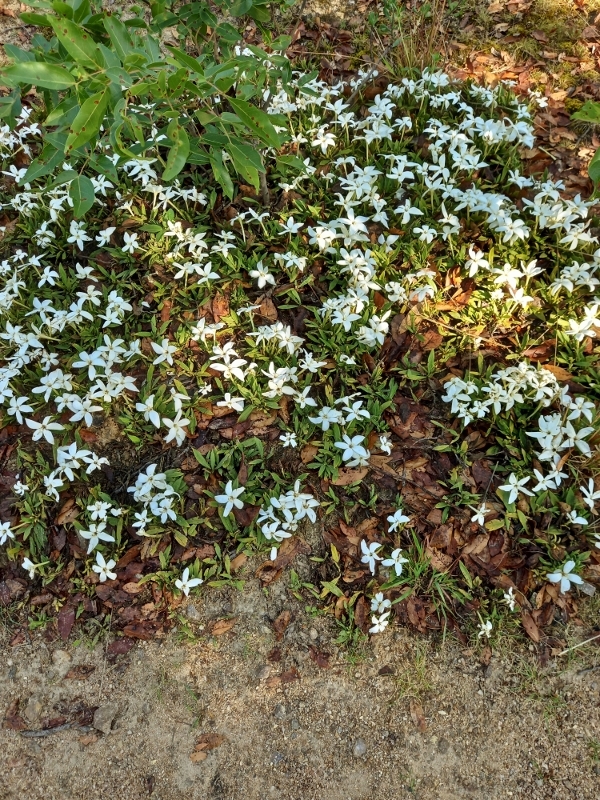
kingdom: Plantae
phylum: Tracheophyta
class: Magnoliopsida
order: Gentianales
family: Rubiaceae
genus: Leptactina
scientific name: Leptactina benguelensis
